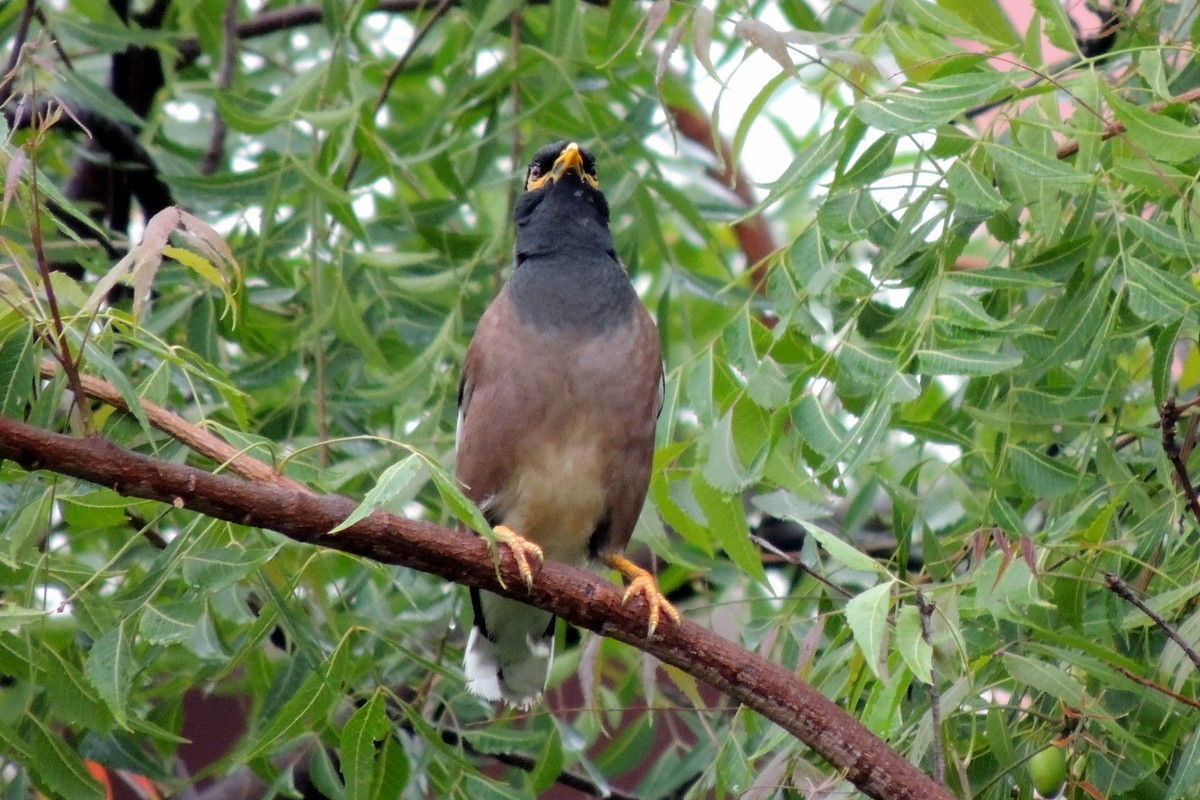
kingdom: Animalia
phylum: Chordata
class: Aves
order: Passeriformes
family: Sturnidae
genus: Acridotheres
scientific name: Acridotheres tristis
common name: Common myna
